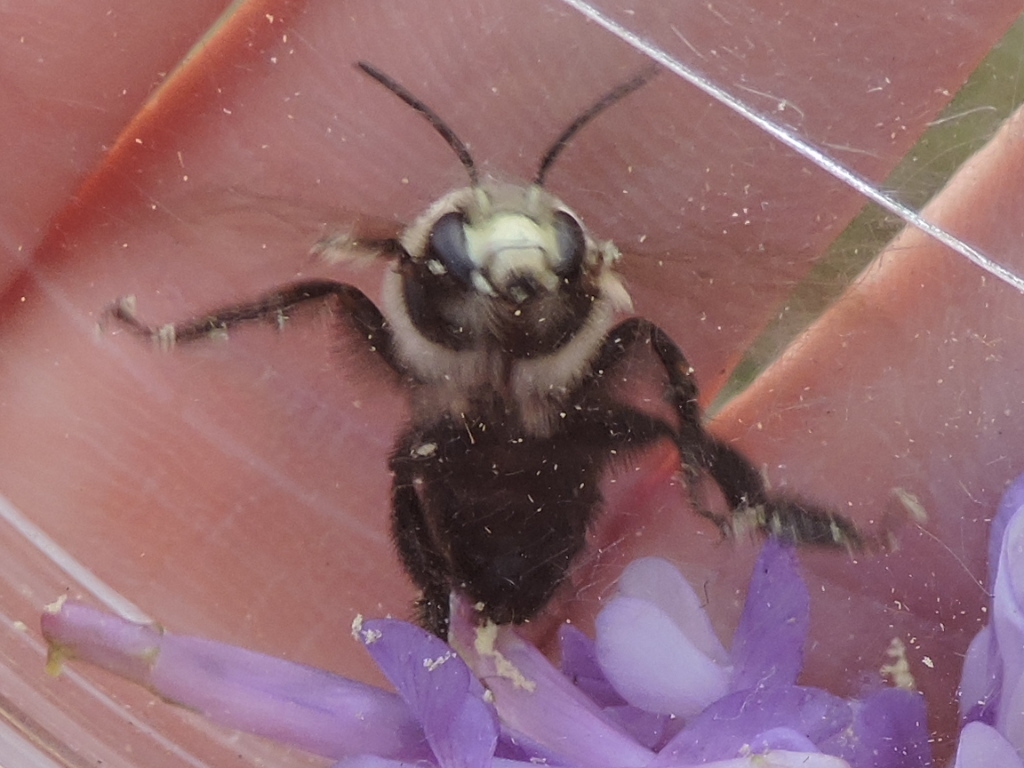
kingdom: Animalia
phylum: Arthropoda
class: Insecta
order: Hymenoptera
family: Apidae
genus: Anthophora
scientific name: Anthophora abrupta
